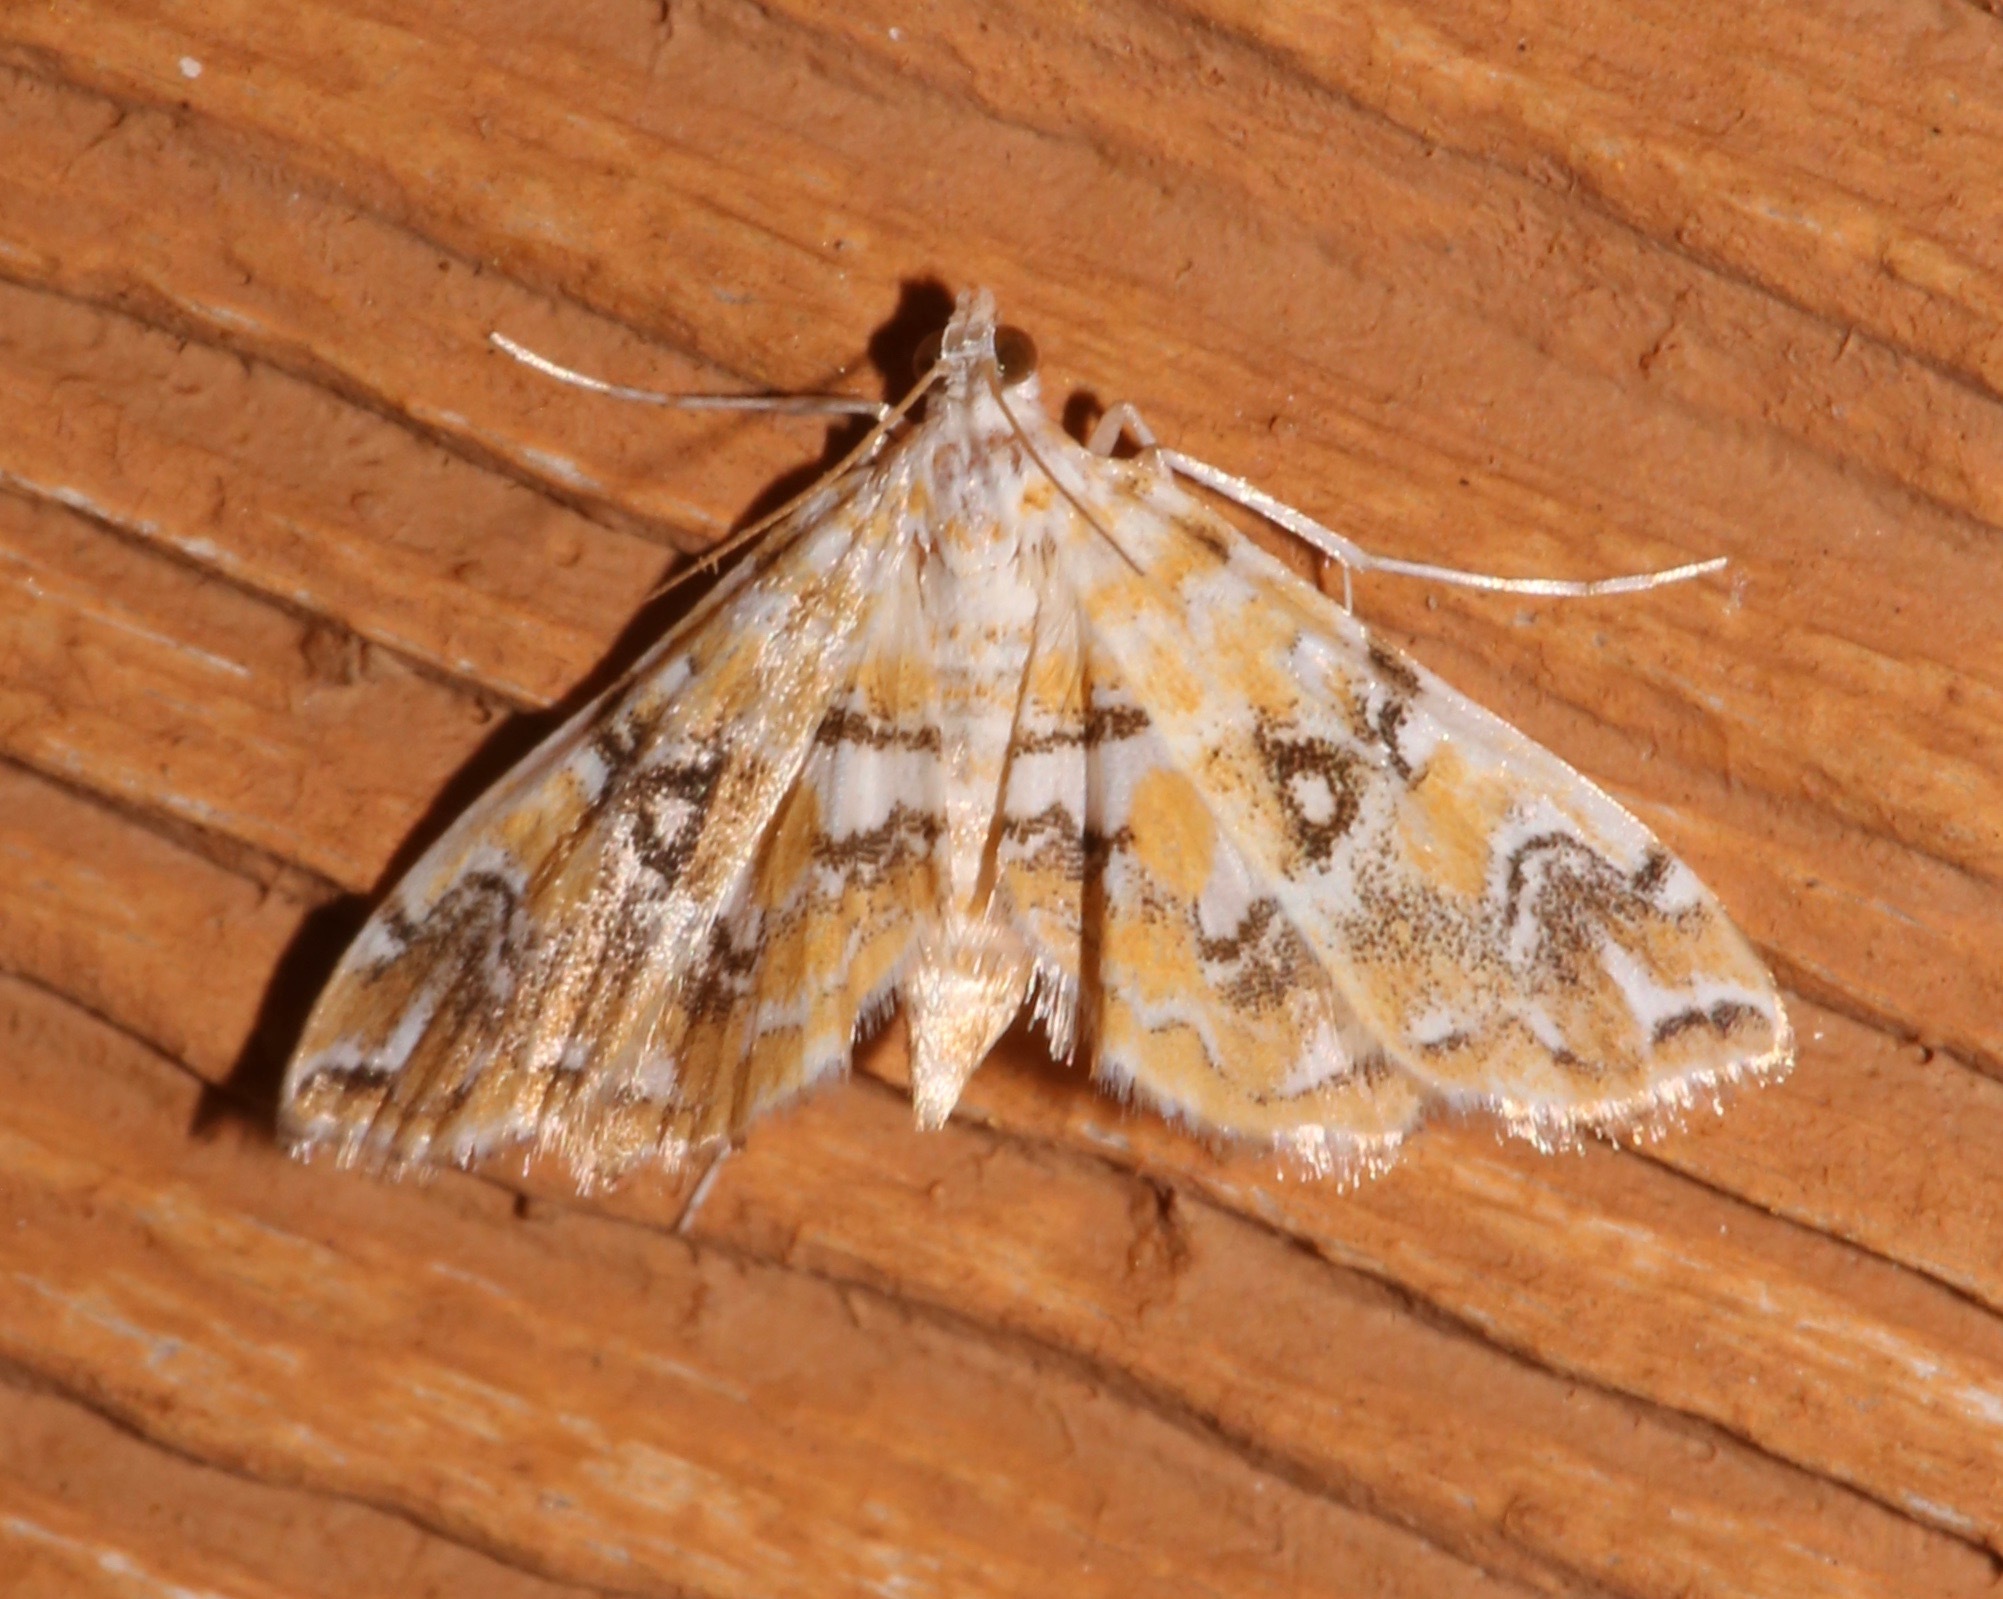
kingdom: Animalia
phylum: Arthropoda
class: Insecta
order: Lepidoptera
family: Crambidae
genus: Elophila
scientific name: Elophila icciusalis
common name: Pondside pyralid moth
